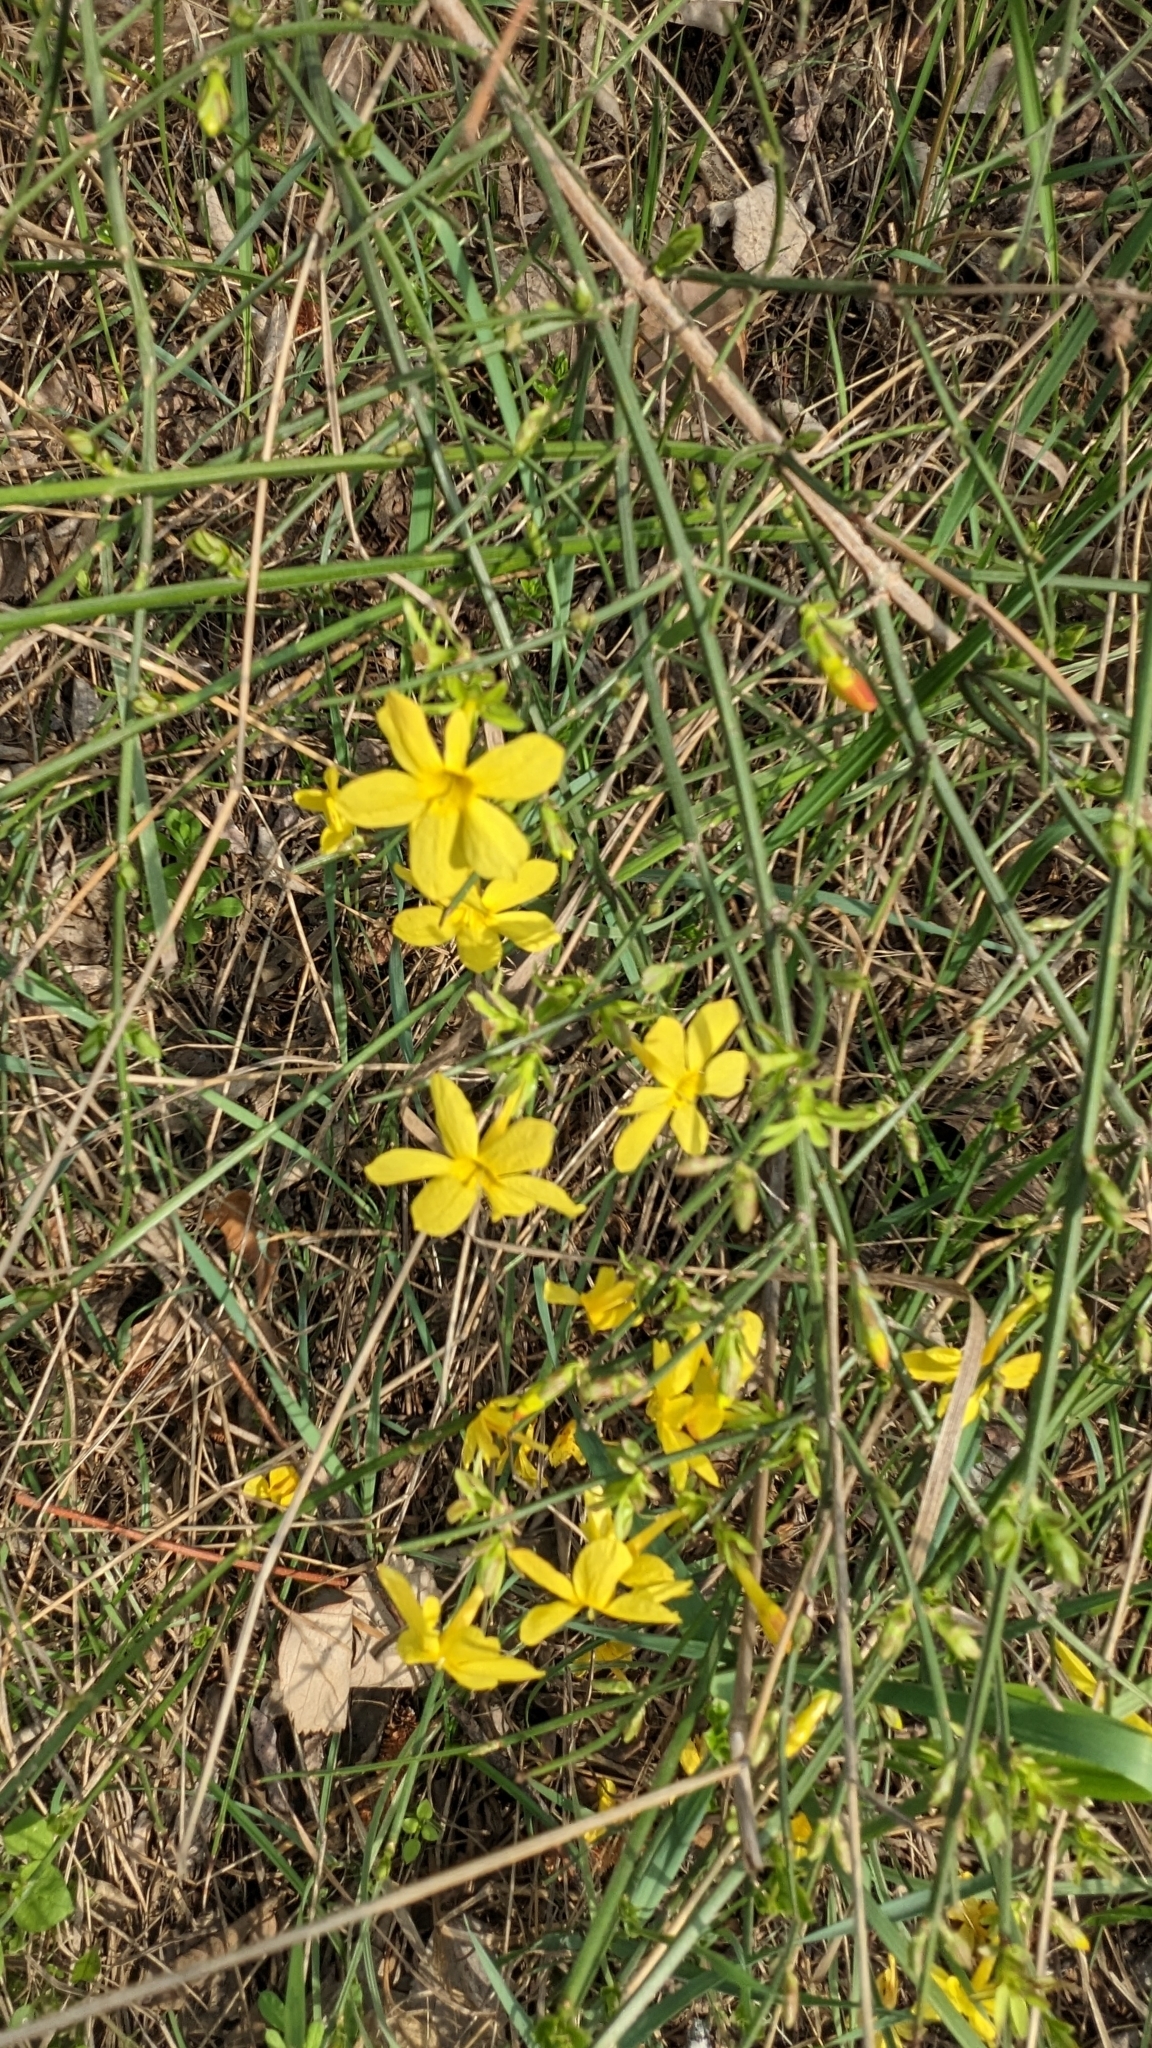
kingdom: Plantae
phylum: Tracheophyta
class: Magnoliopsida
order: Lamiales
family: Oleaceae
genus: Jasminum
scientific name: Jasminum nudiflorum
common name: Winter jasmine
